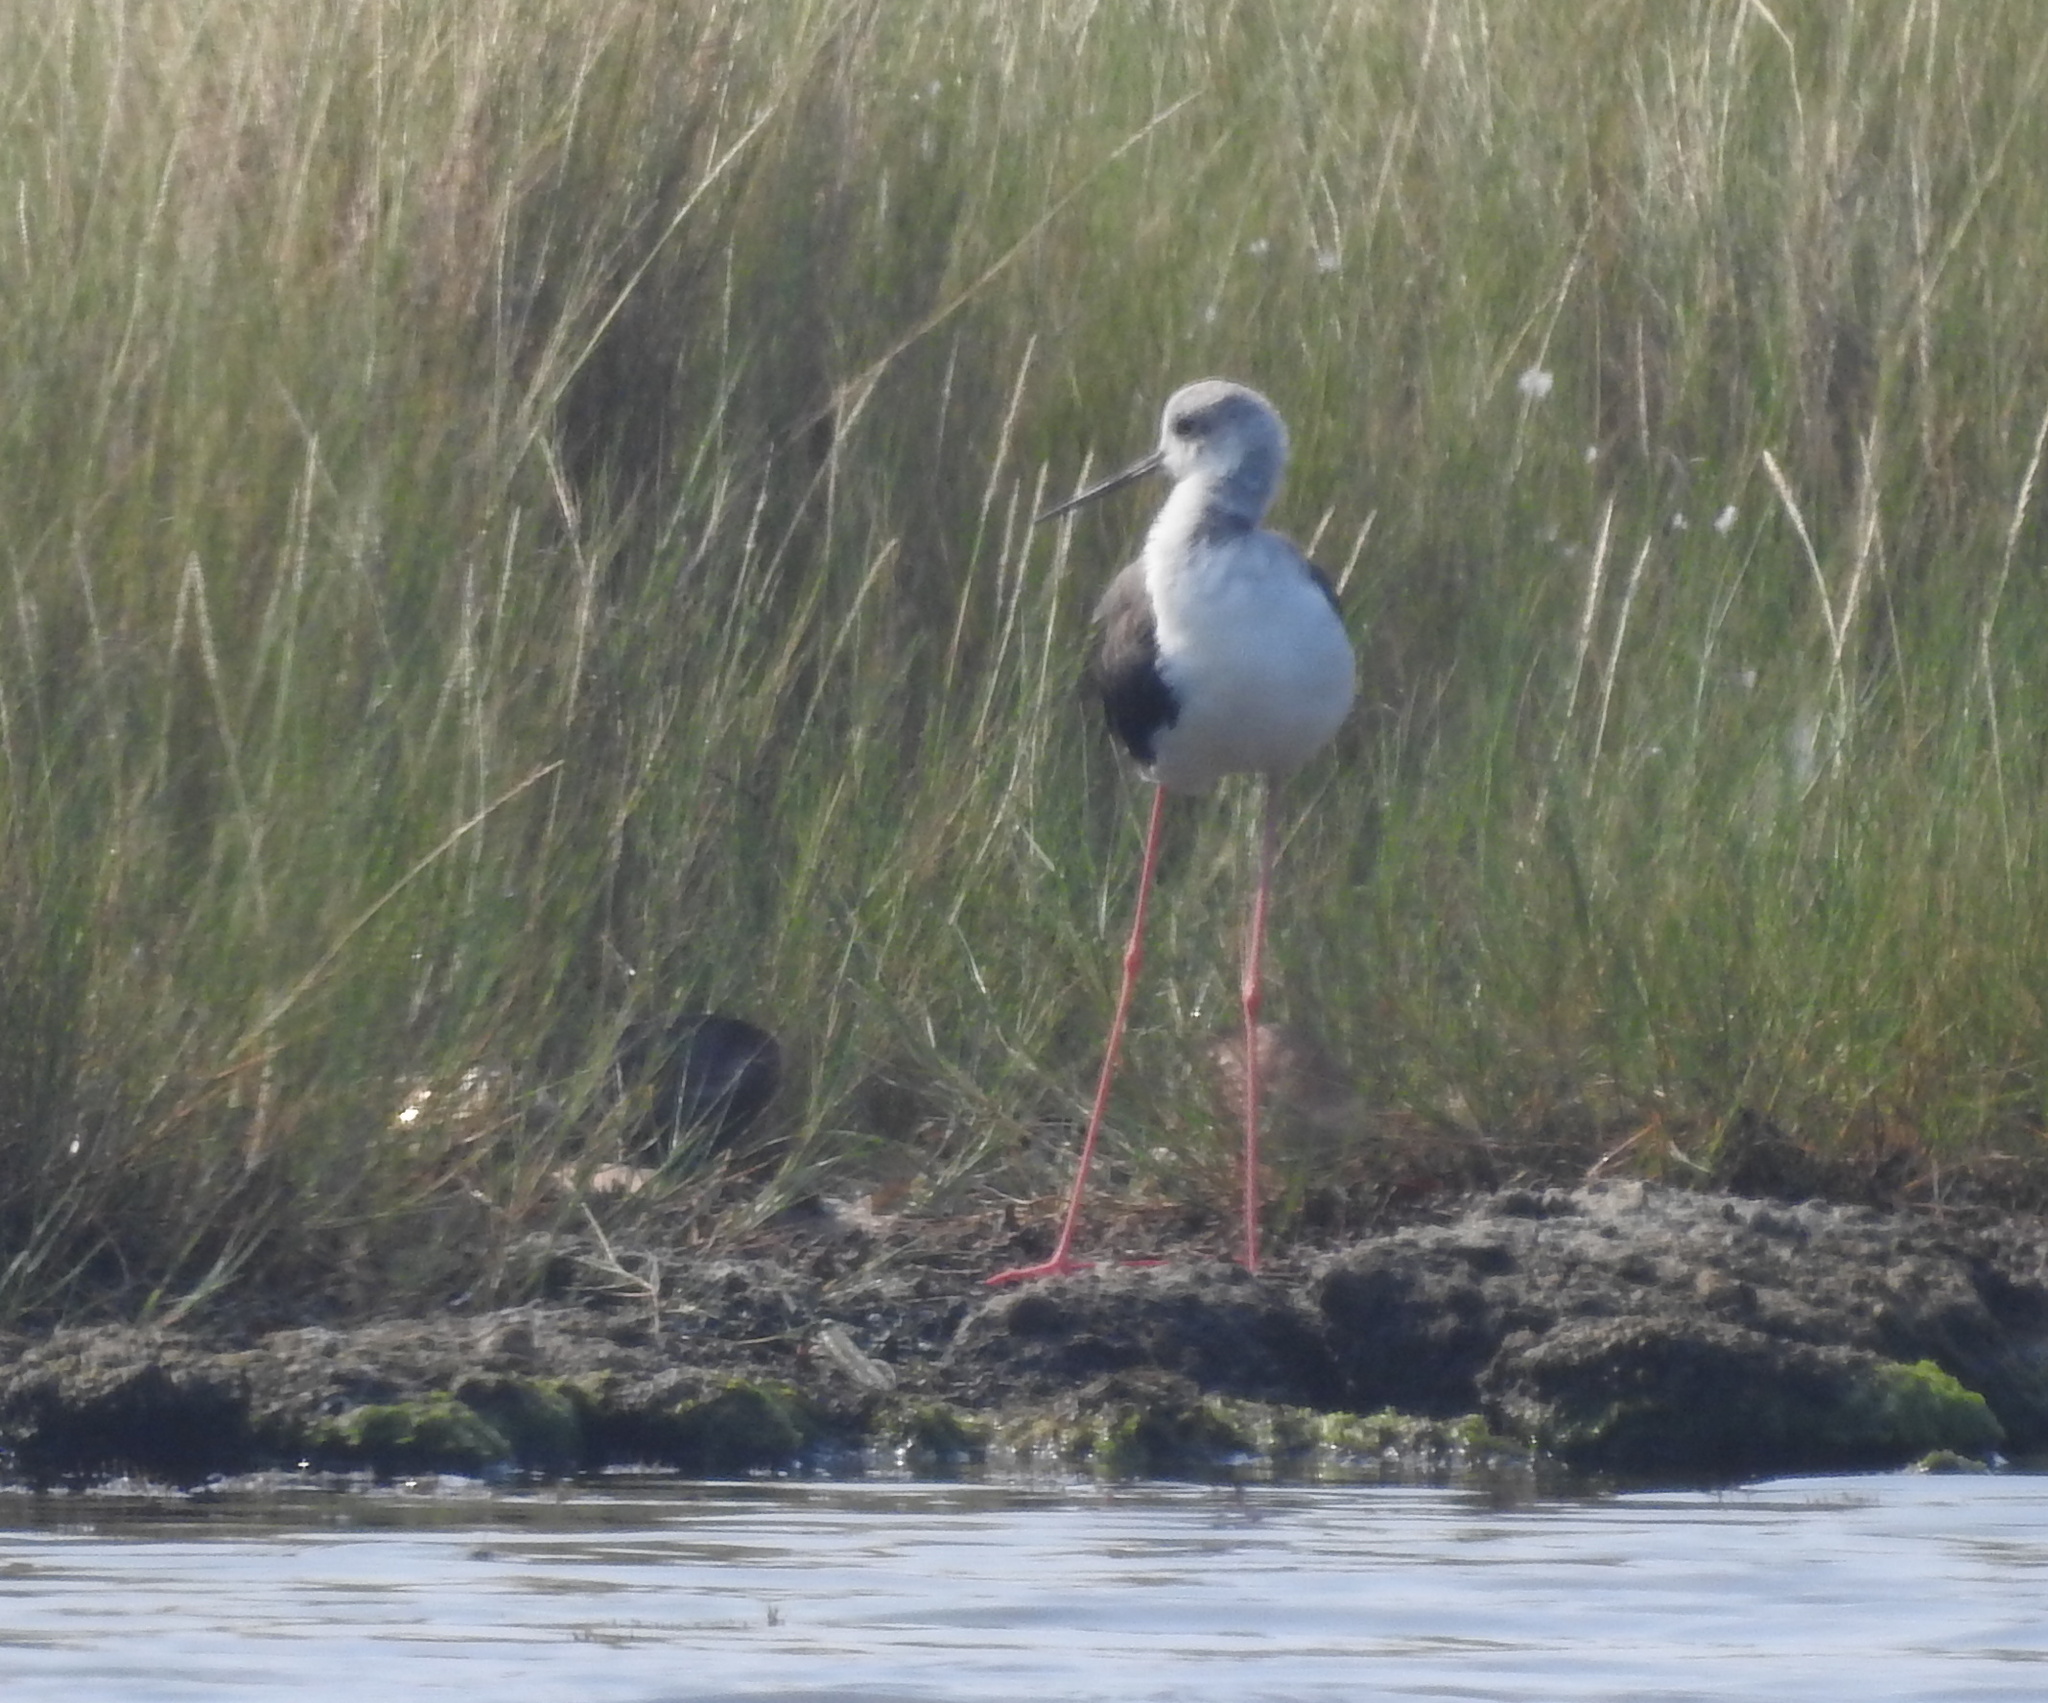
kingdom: Animalia
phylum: Chordata
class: Aves
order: Charadriiformes
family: Recurvirostridae
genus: Himantopus
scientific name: Himantopus himantopus
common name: Black-winged stilt
